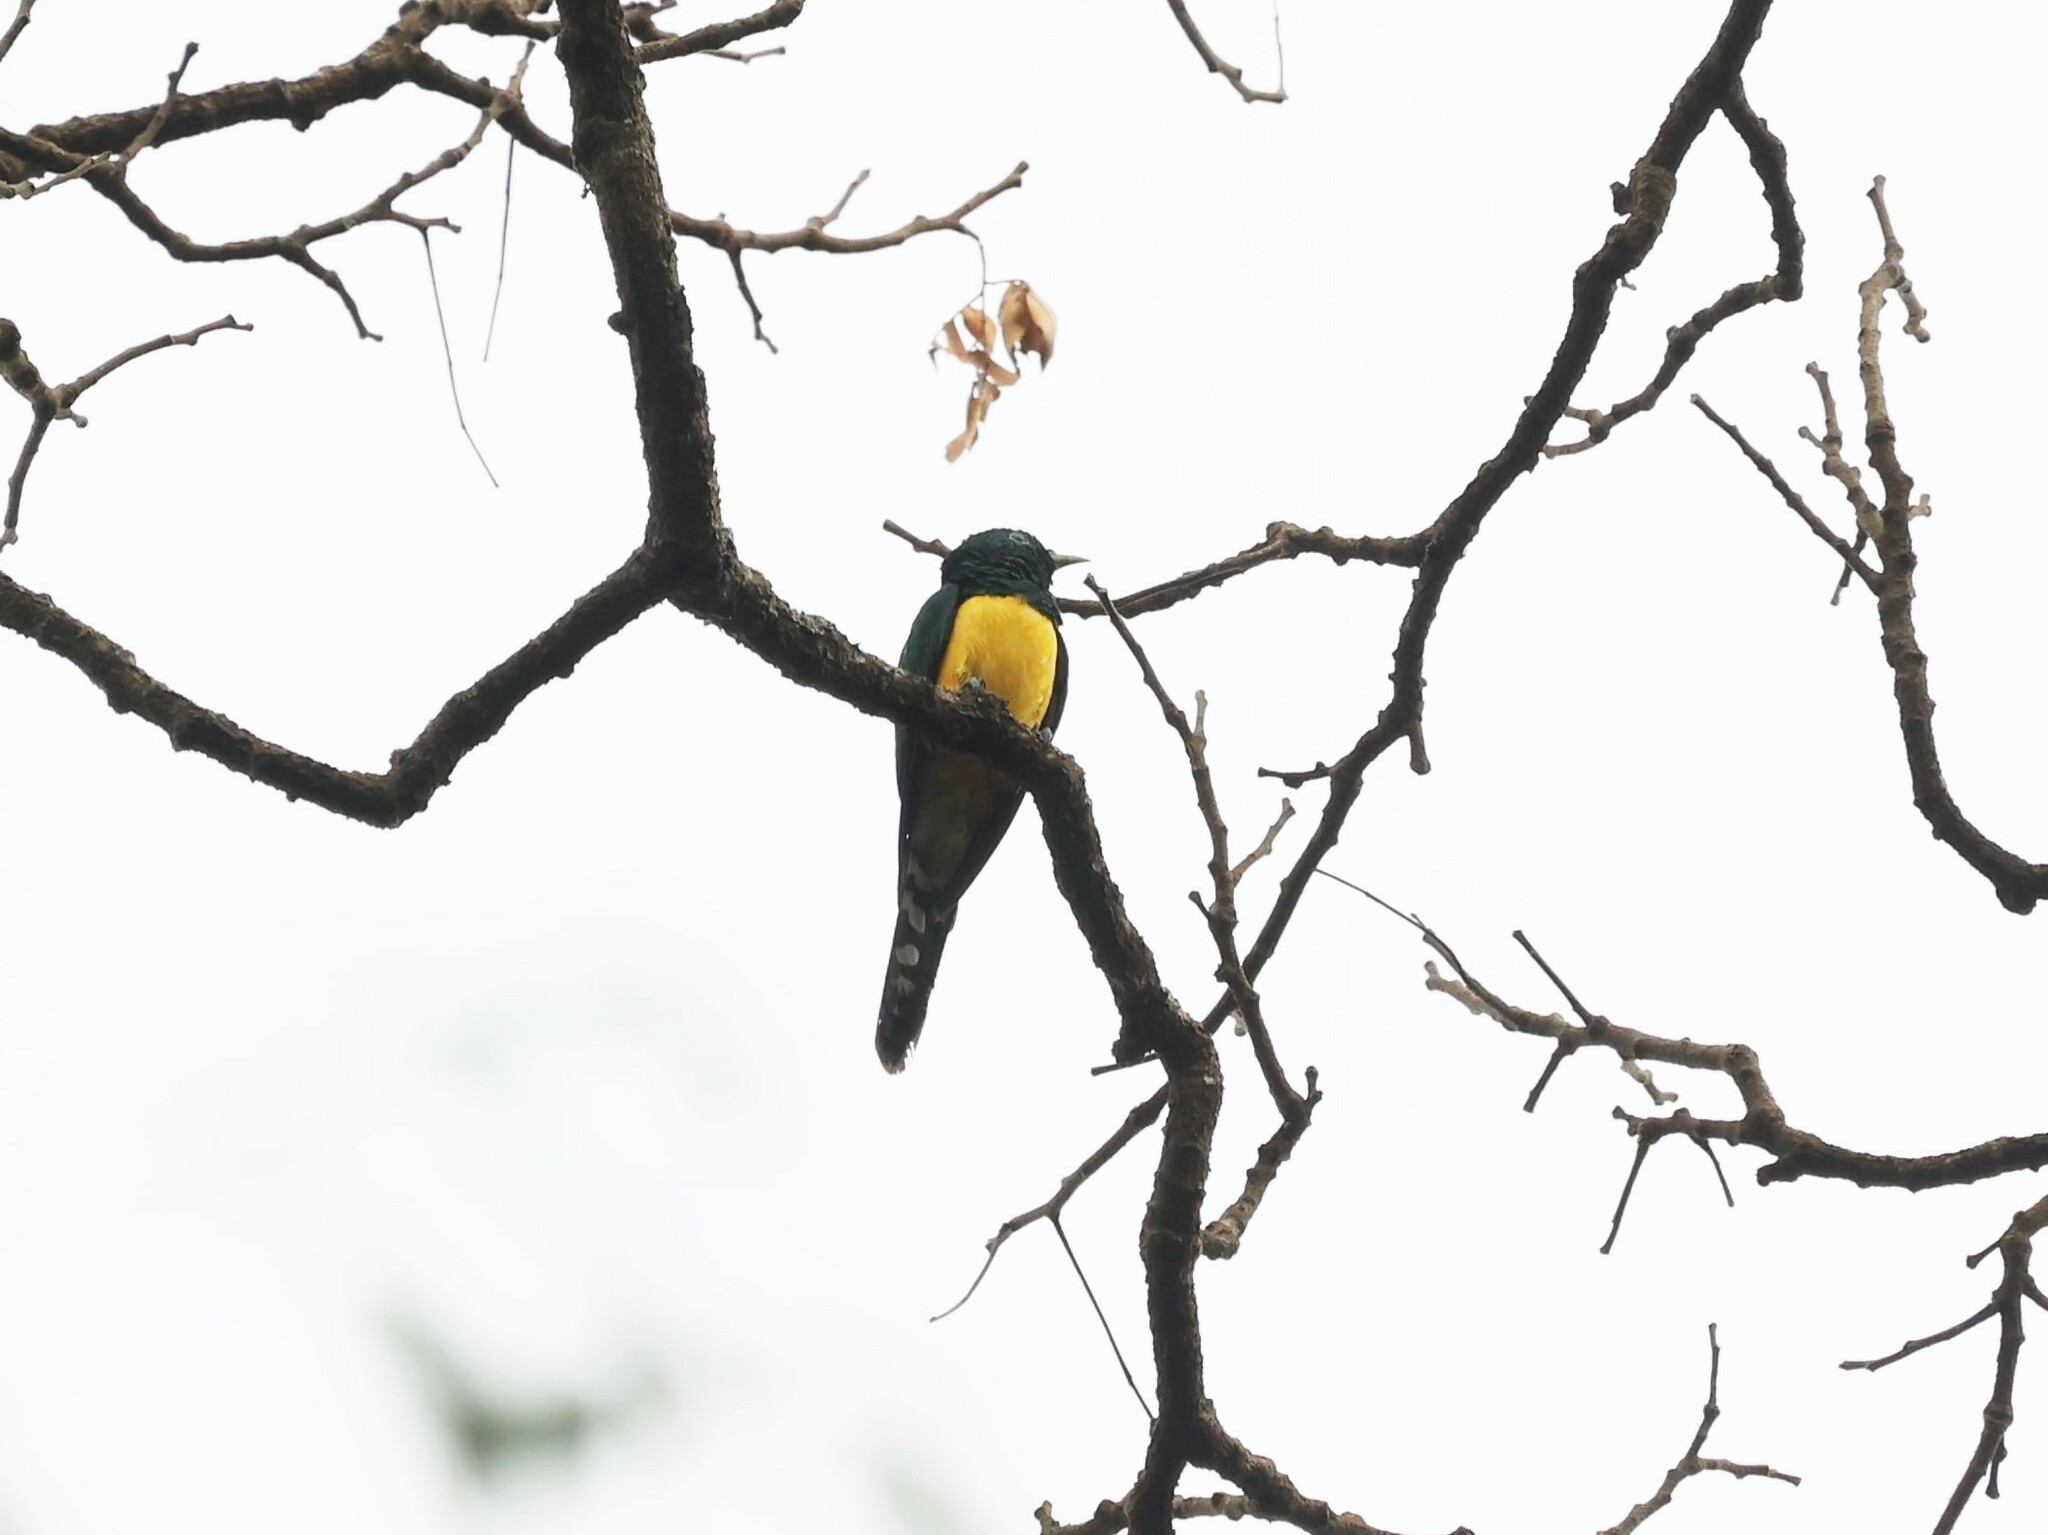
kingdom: Animalia
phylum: Chordata
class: Aves
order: Cuculiformes
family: Cuculidae
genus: Chrysococcyx
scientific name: Chrysococcyx cupreus
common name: African emerald cuckoo
